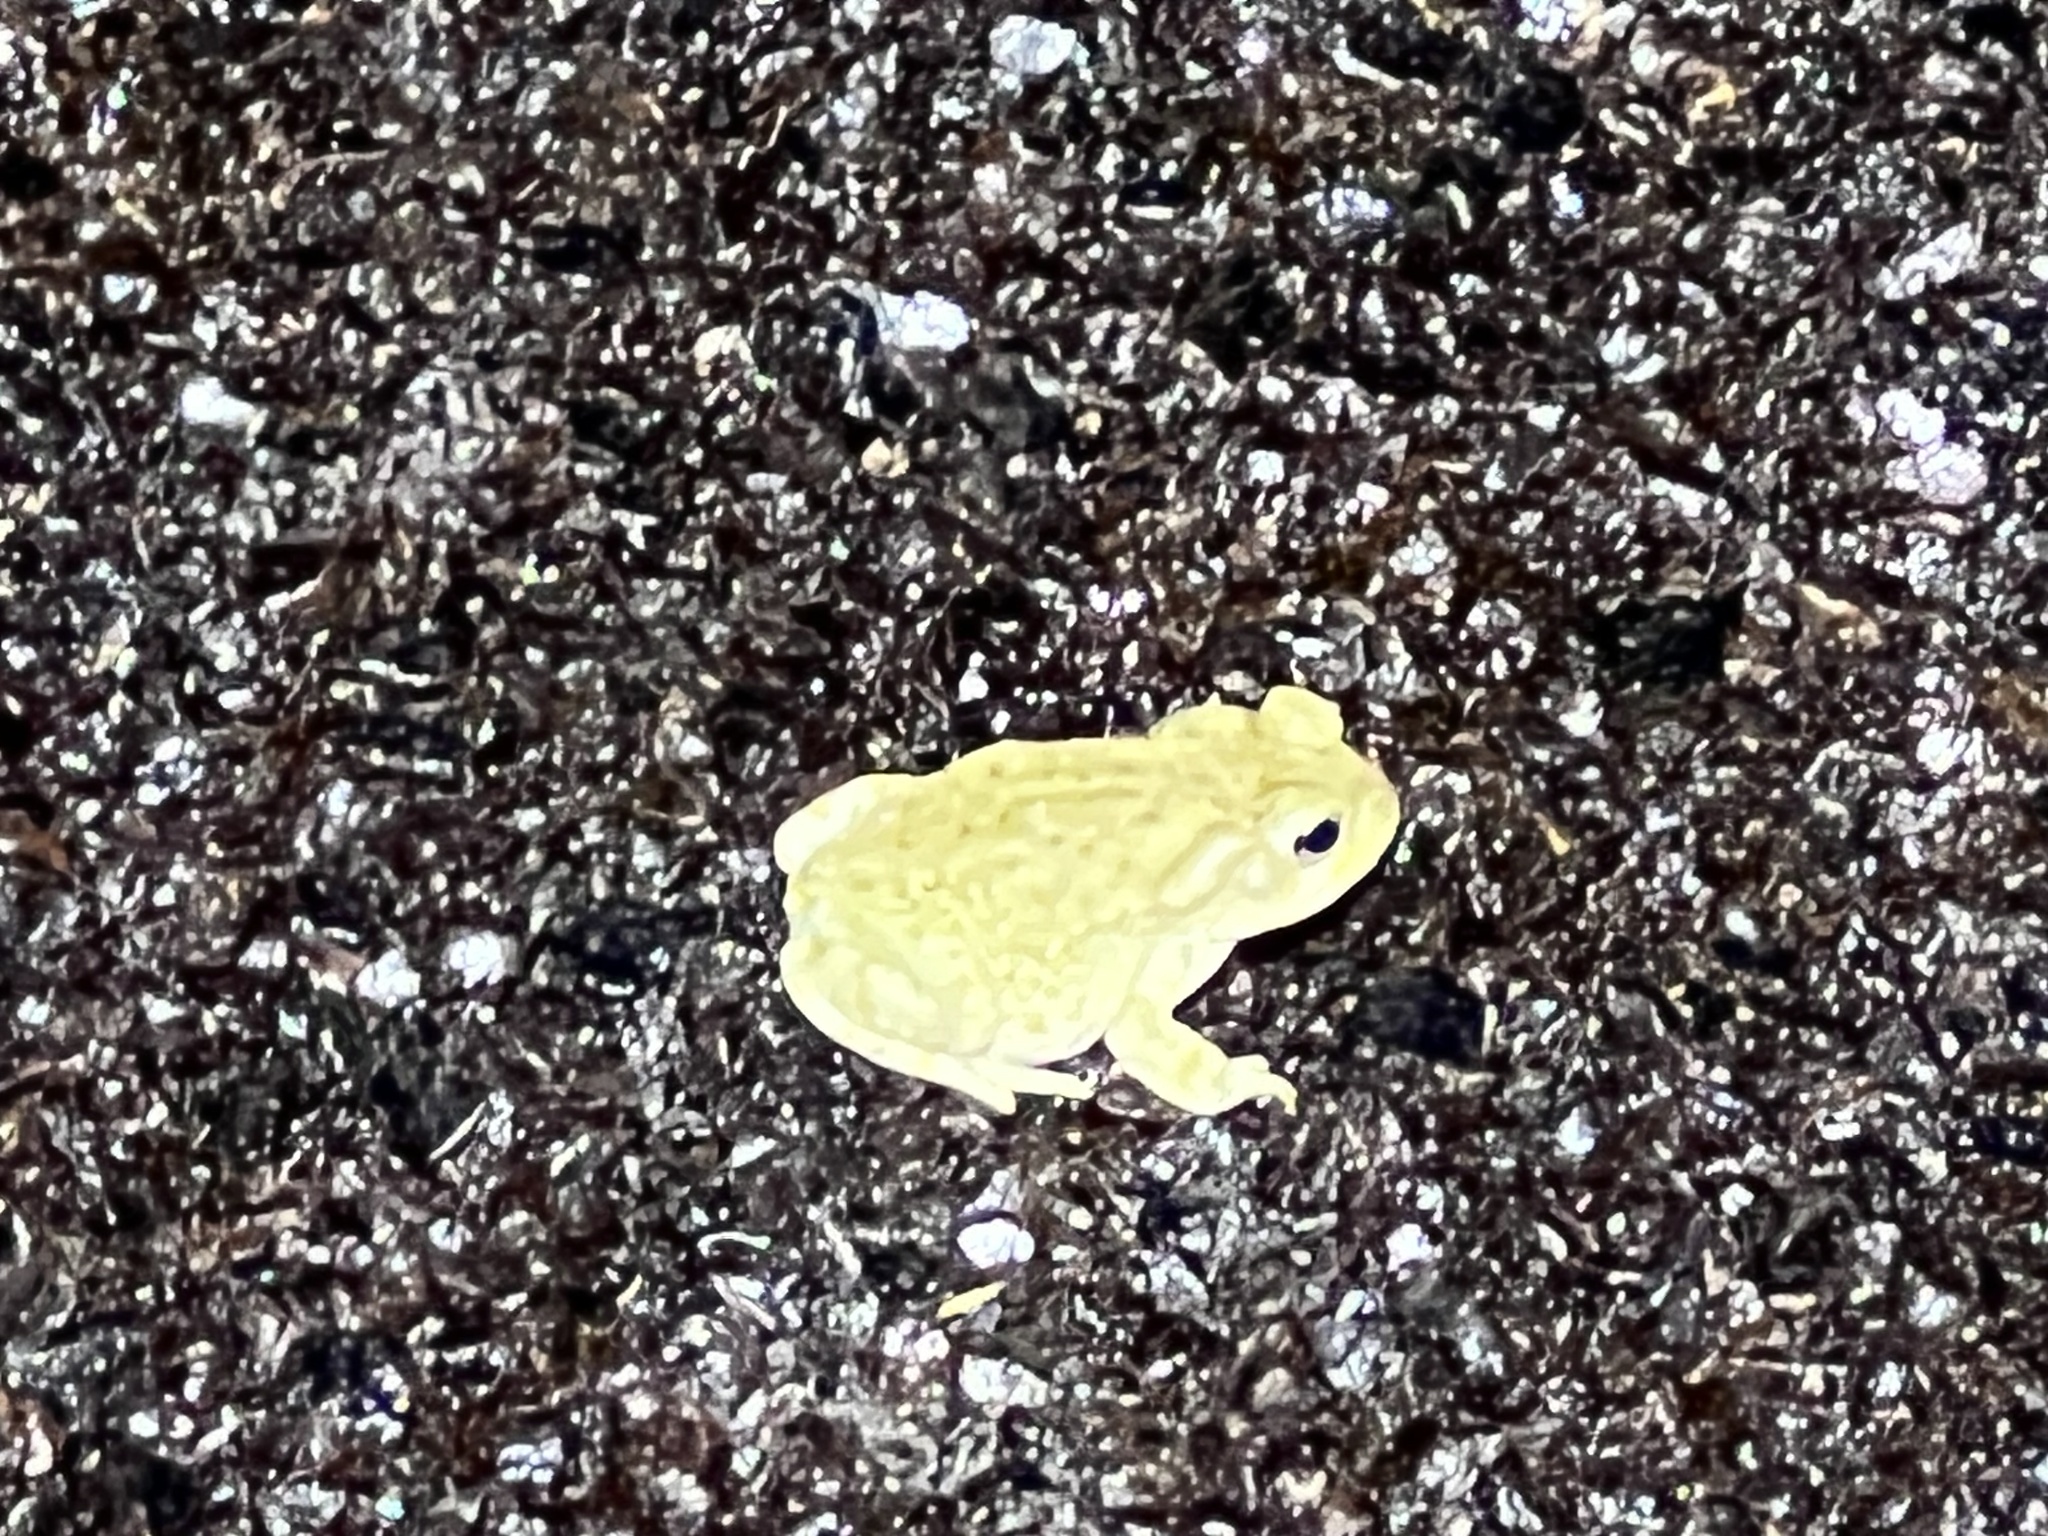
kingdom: Animalia
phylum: Chordata
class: Amphibia
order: Anura
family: Bufonidae
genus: Incilius
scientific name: Incilius alvarius
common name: Sonoran desert toad
